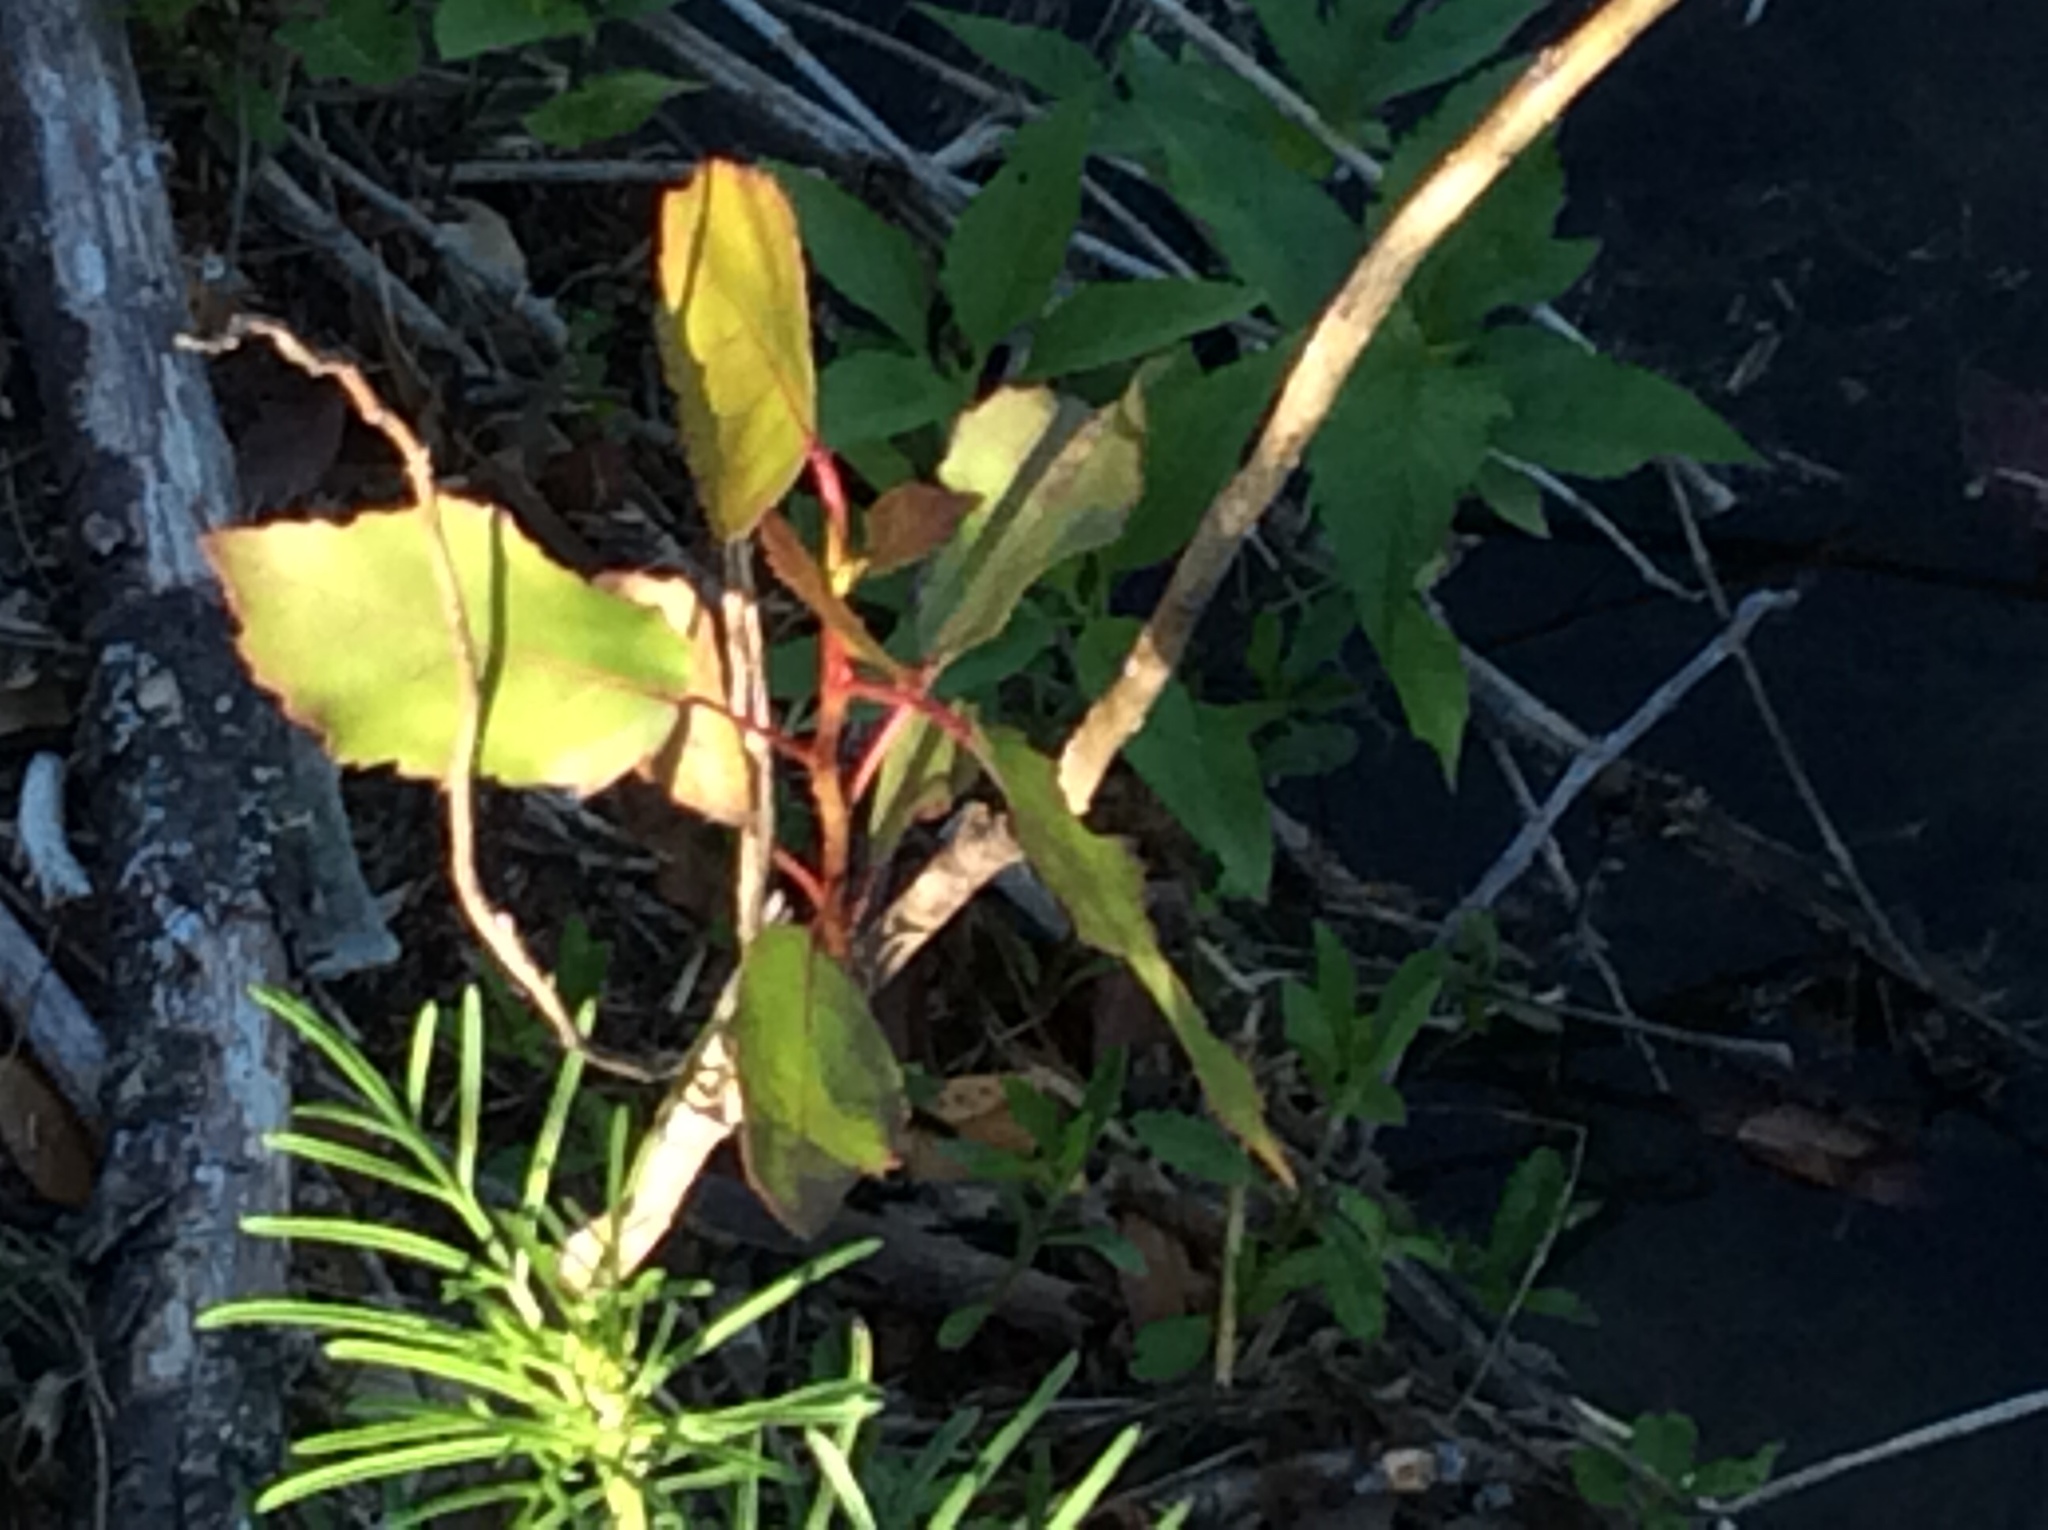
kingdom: Plantae
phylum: Tracheophyta
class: Magnoliopsida
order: Malpighiales
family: Salicaceae
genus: Populus
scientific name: Populus deltoides
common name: Eastern cottonwood
